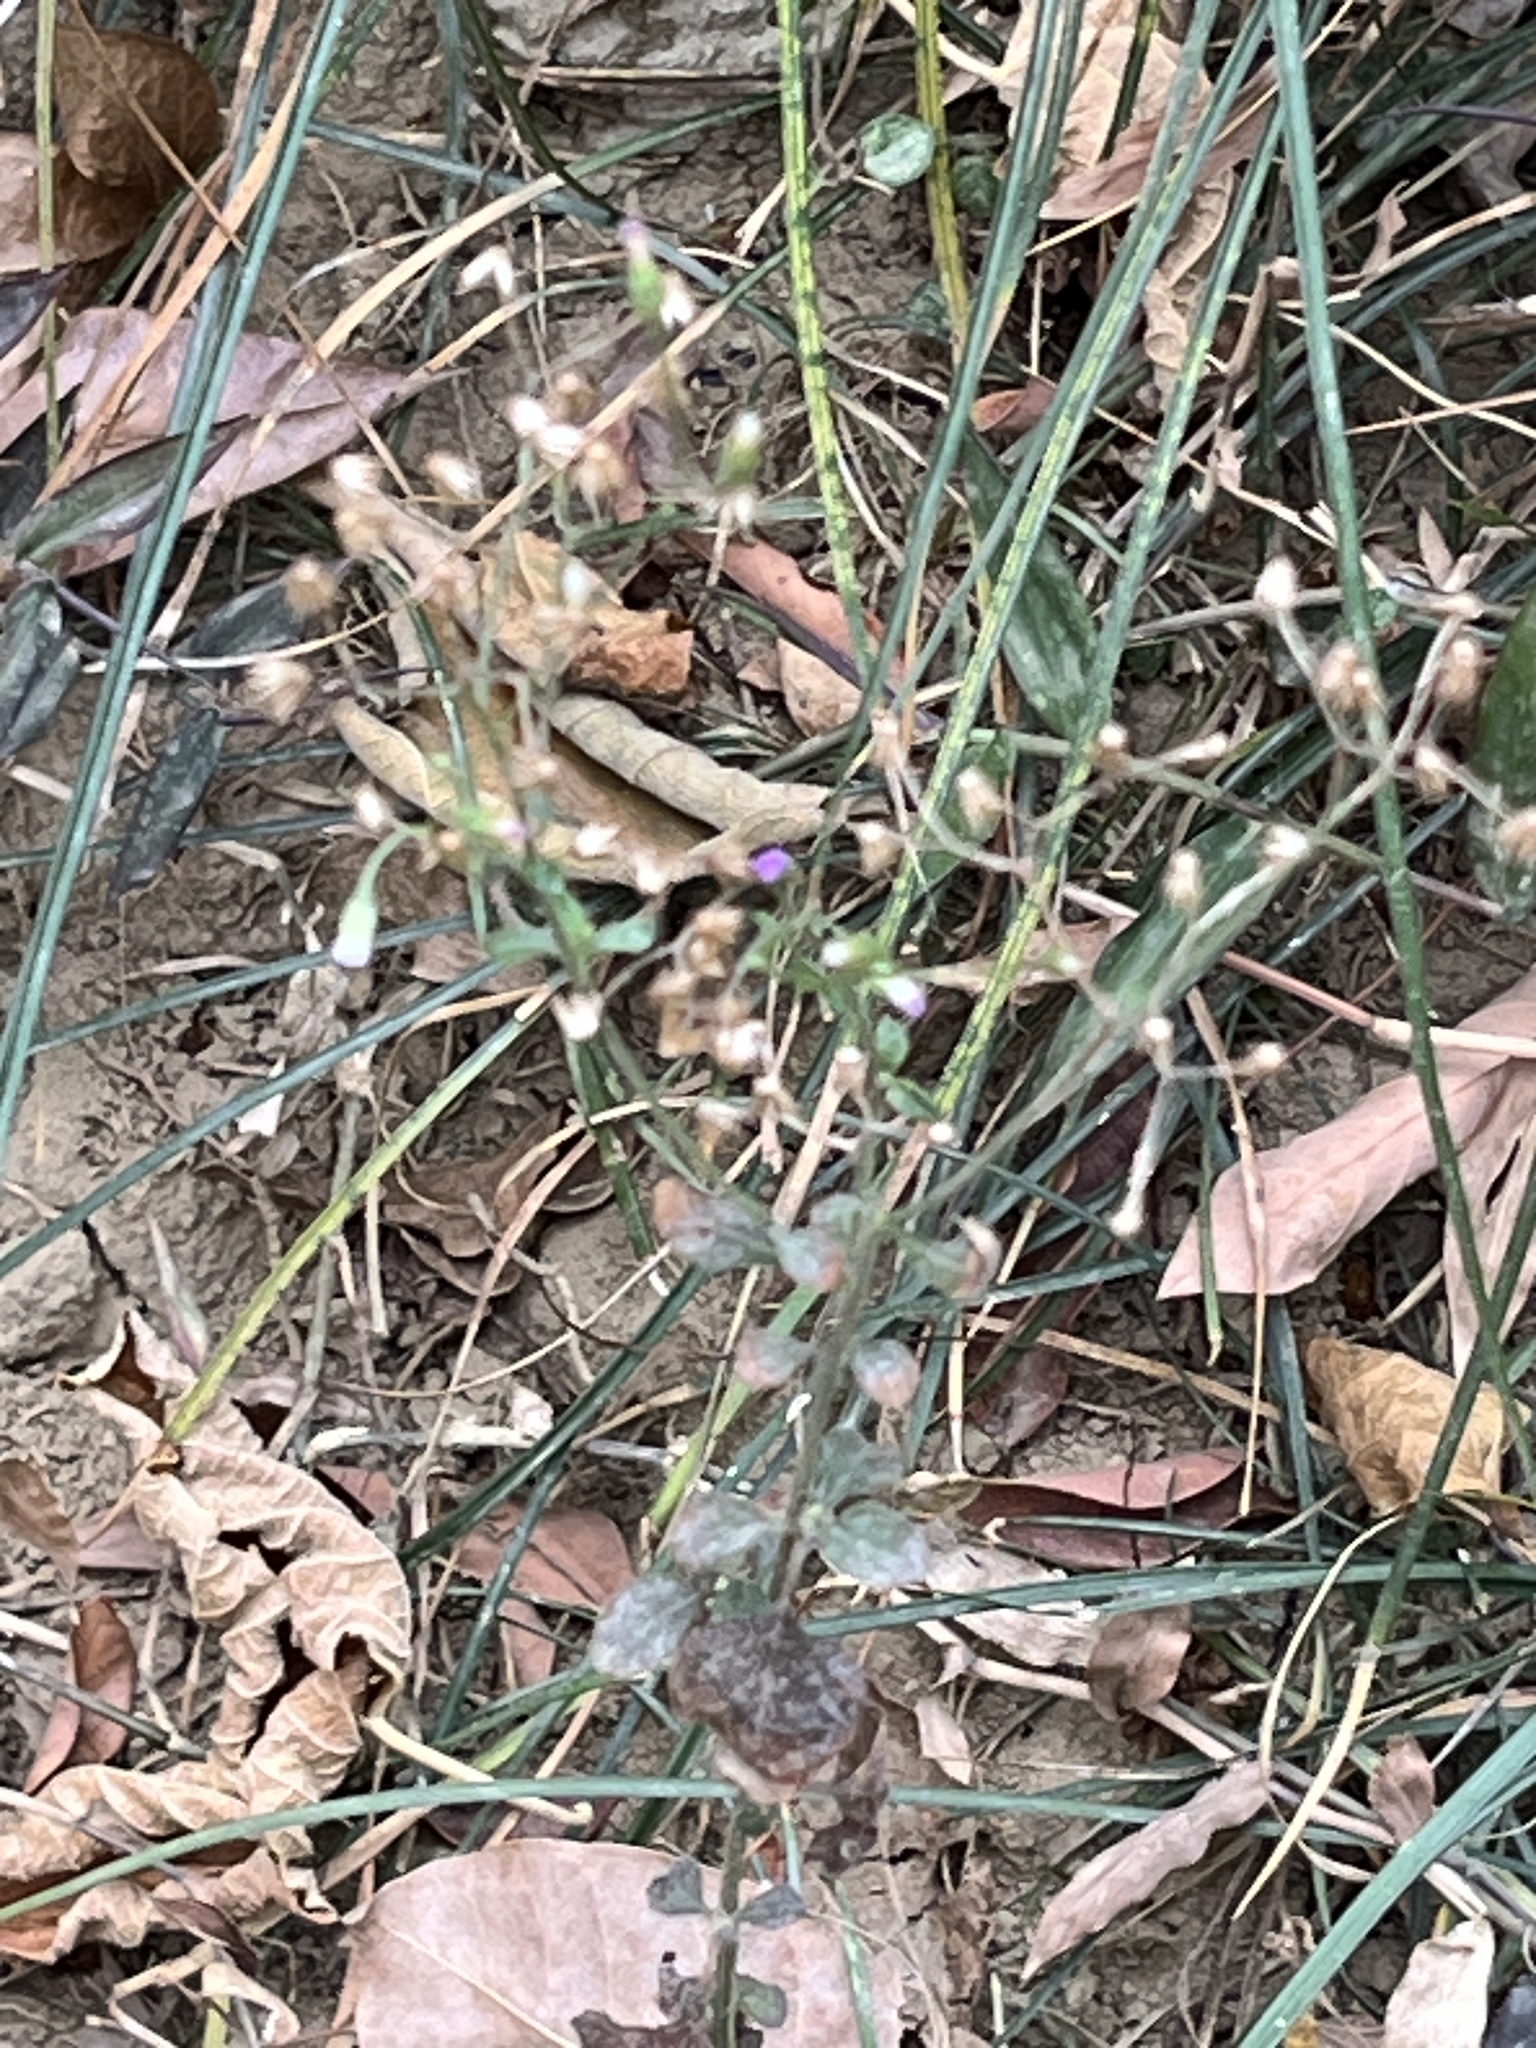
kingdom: Plantae
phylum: Tracheophyta
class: Magnoliopsida
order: Asterales
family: Asteraceae
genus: Cyanthillium
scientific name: Cyanthillium cinereum
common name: Little ironweed
